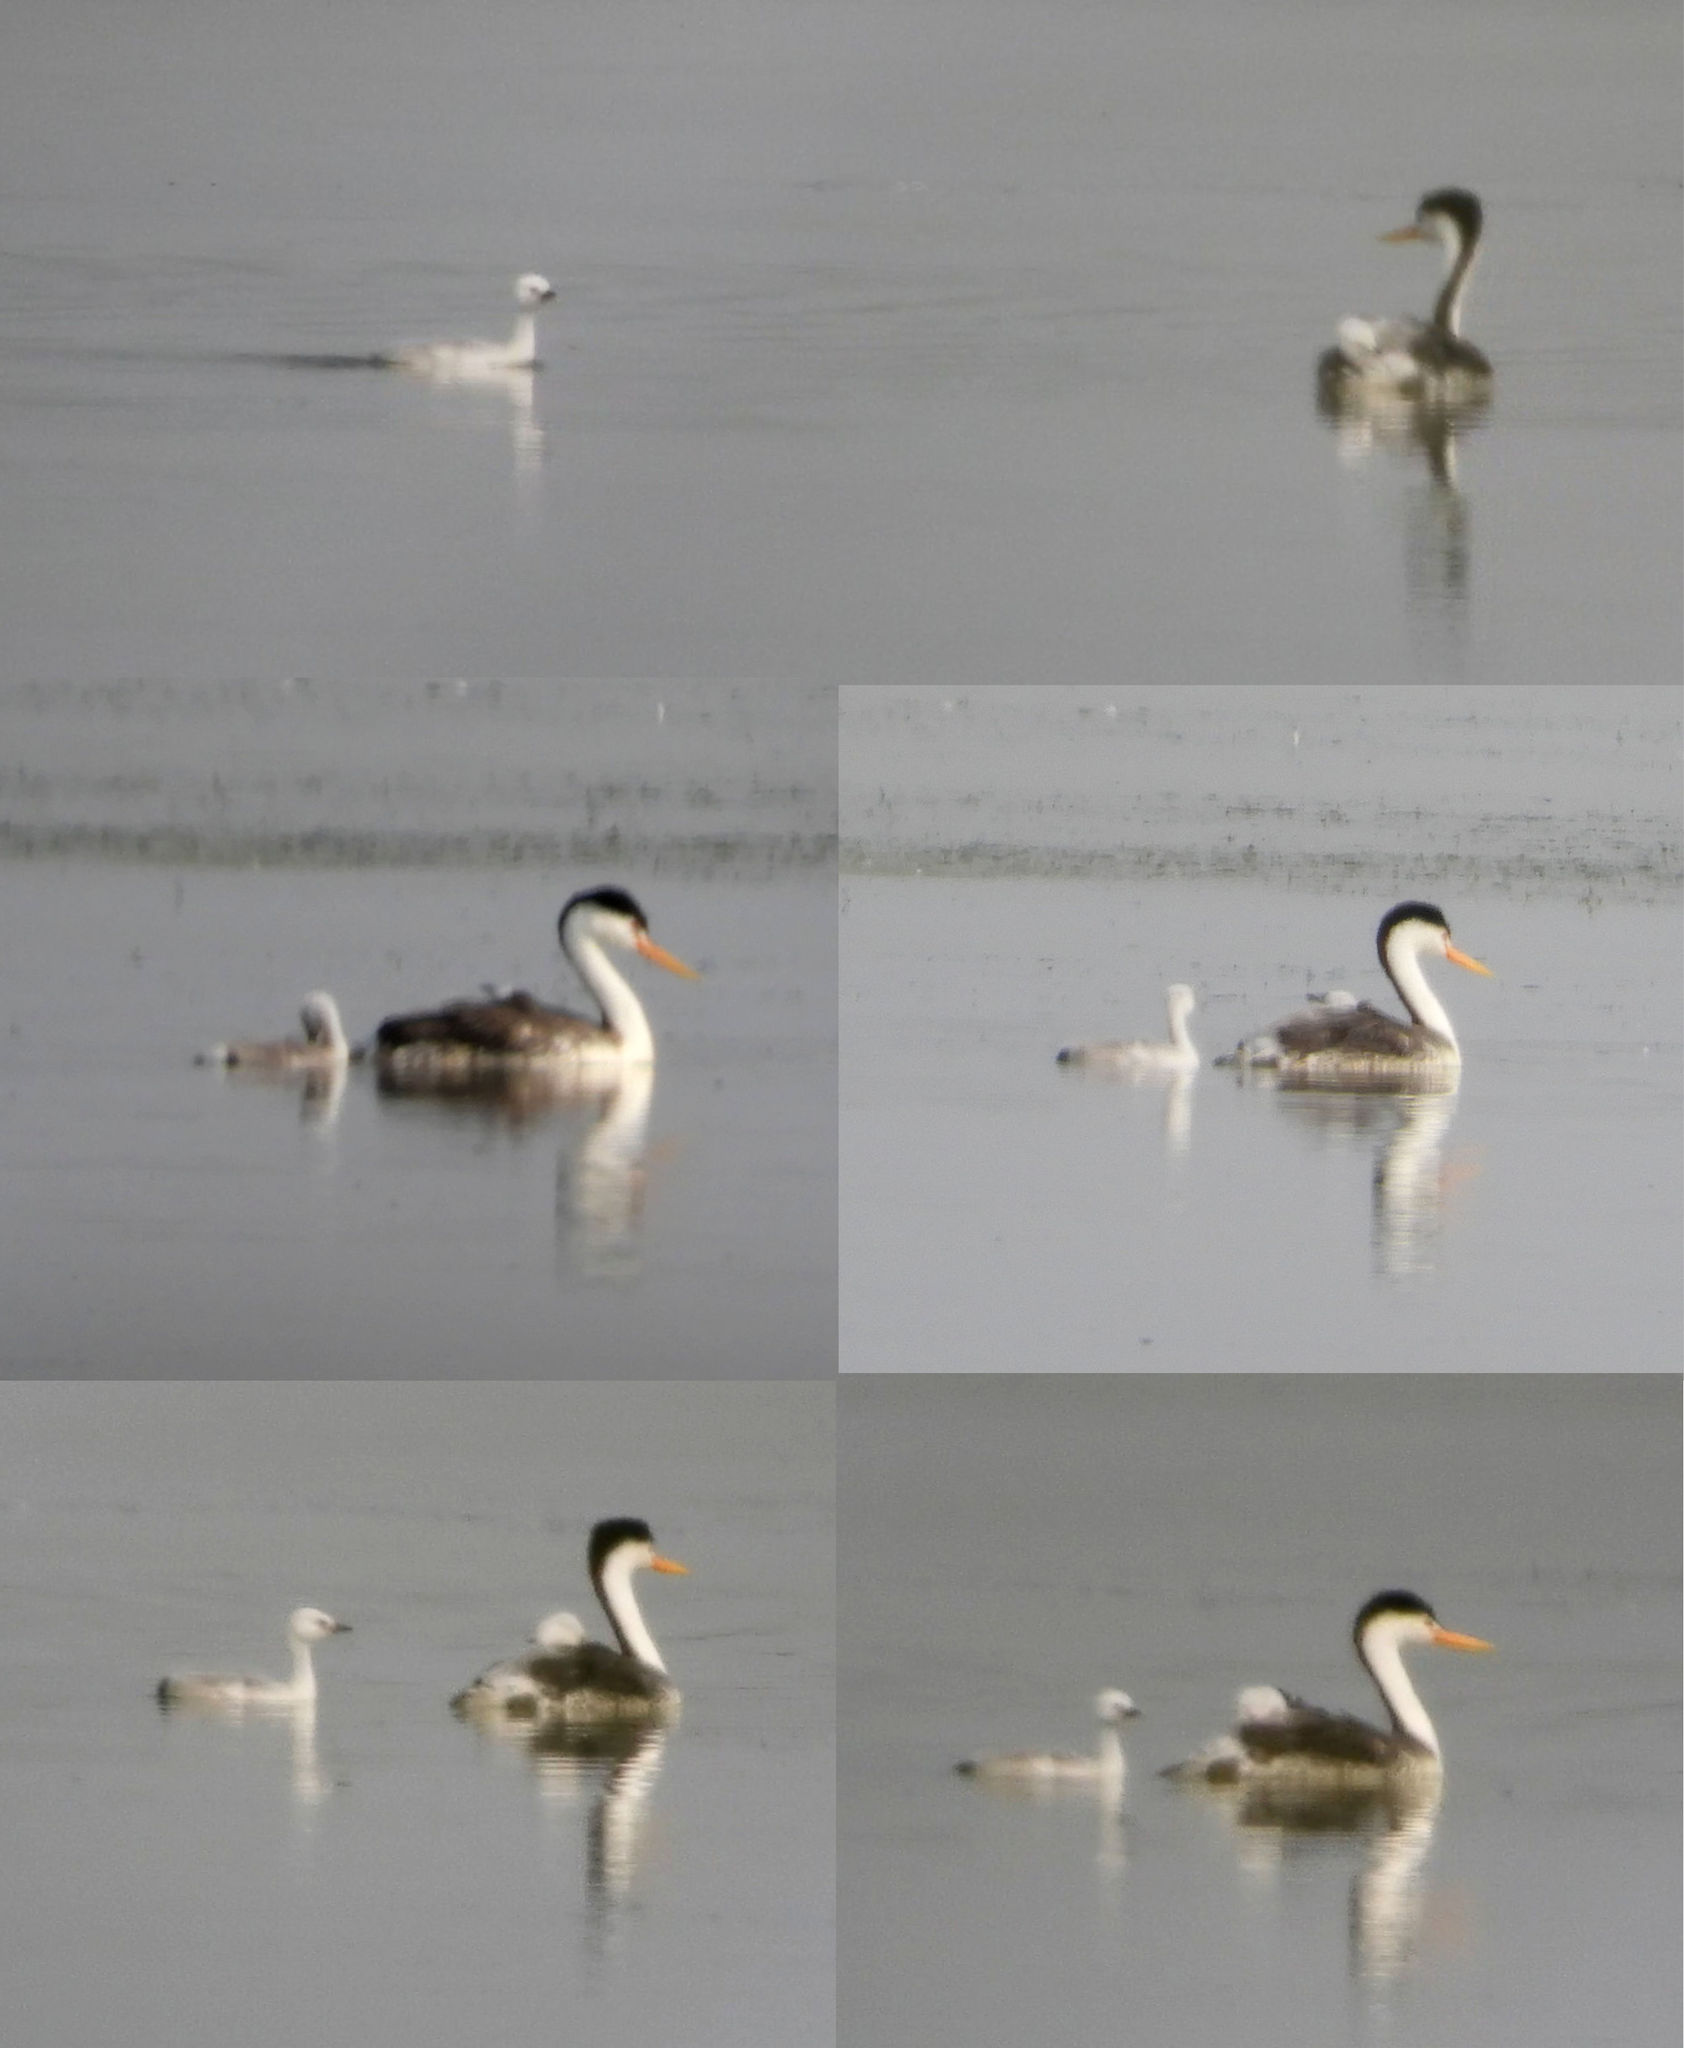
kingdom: Animalia
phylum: Chordata
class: Aves
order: Podicipediformes
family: Podicipedidae
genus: Aechmophorus
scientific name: Aechmophorus clarkii
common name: Clark's grebe
